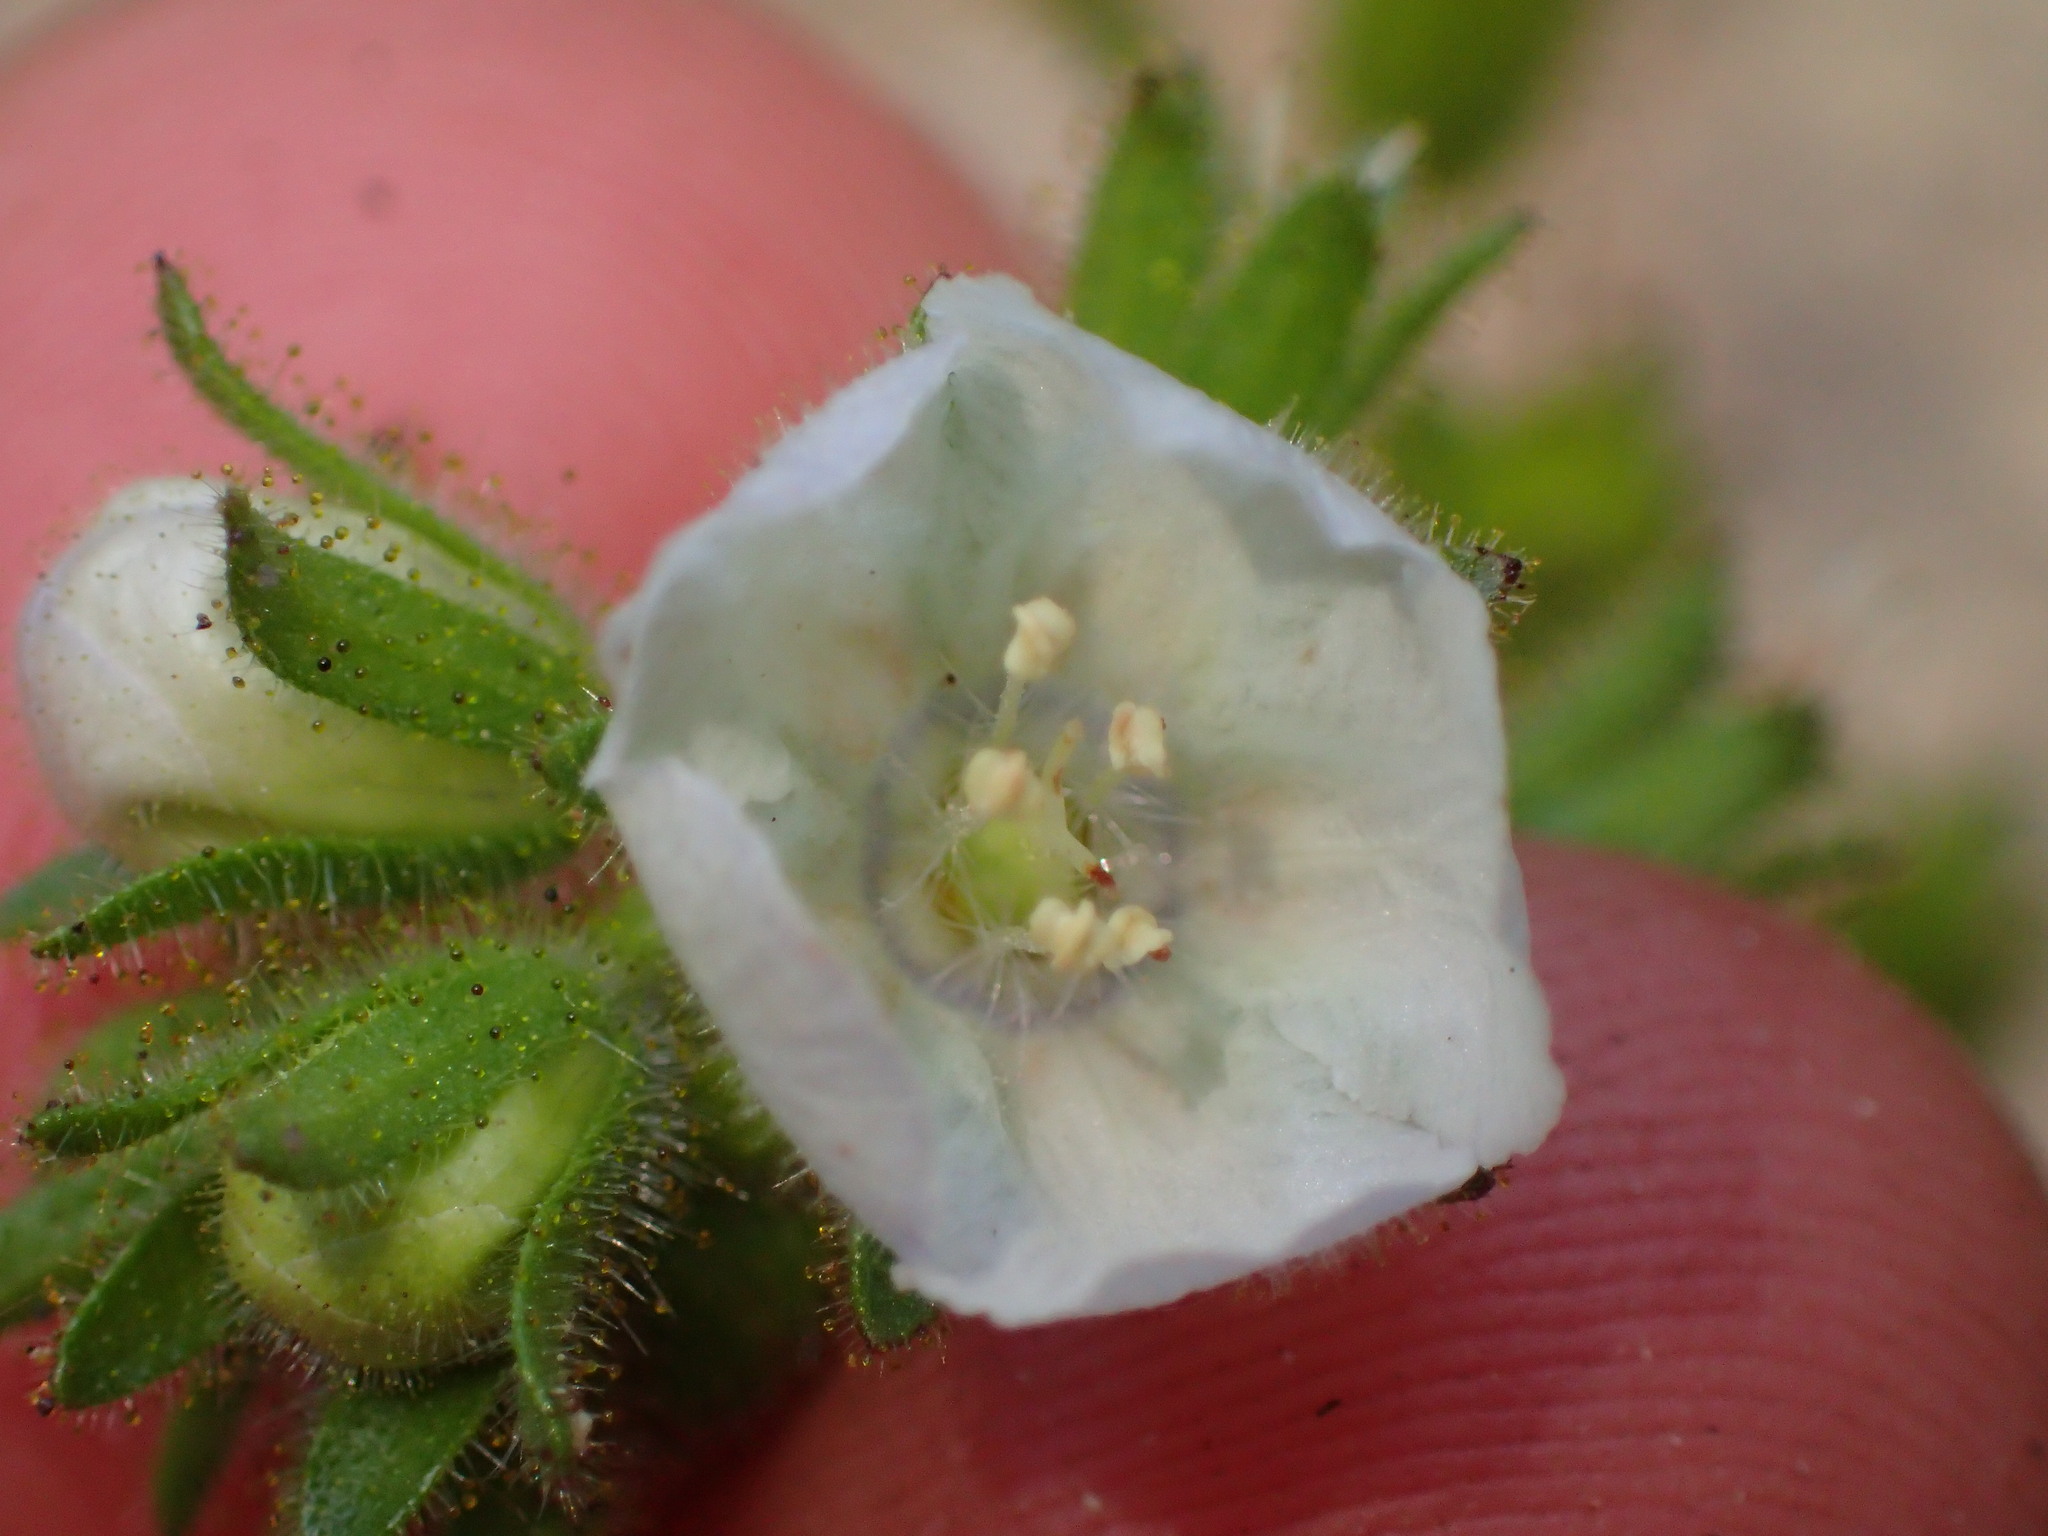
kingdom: Plantae
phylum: Tracheophyta
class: Magnoliopsida
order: Boraginales
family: Hydrophyllaceae
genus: Phacelia
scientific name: Phacelia viscida
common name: Sticky phacelia
